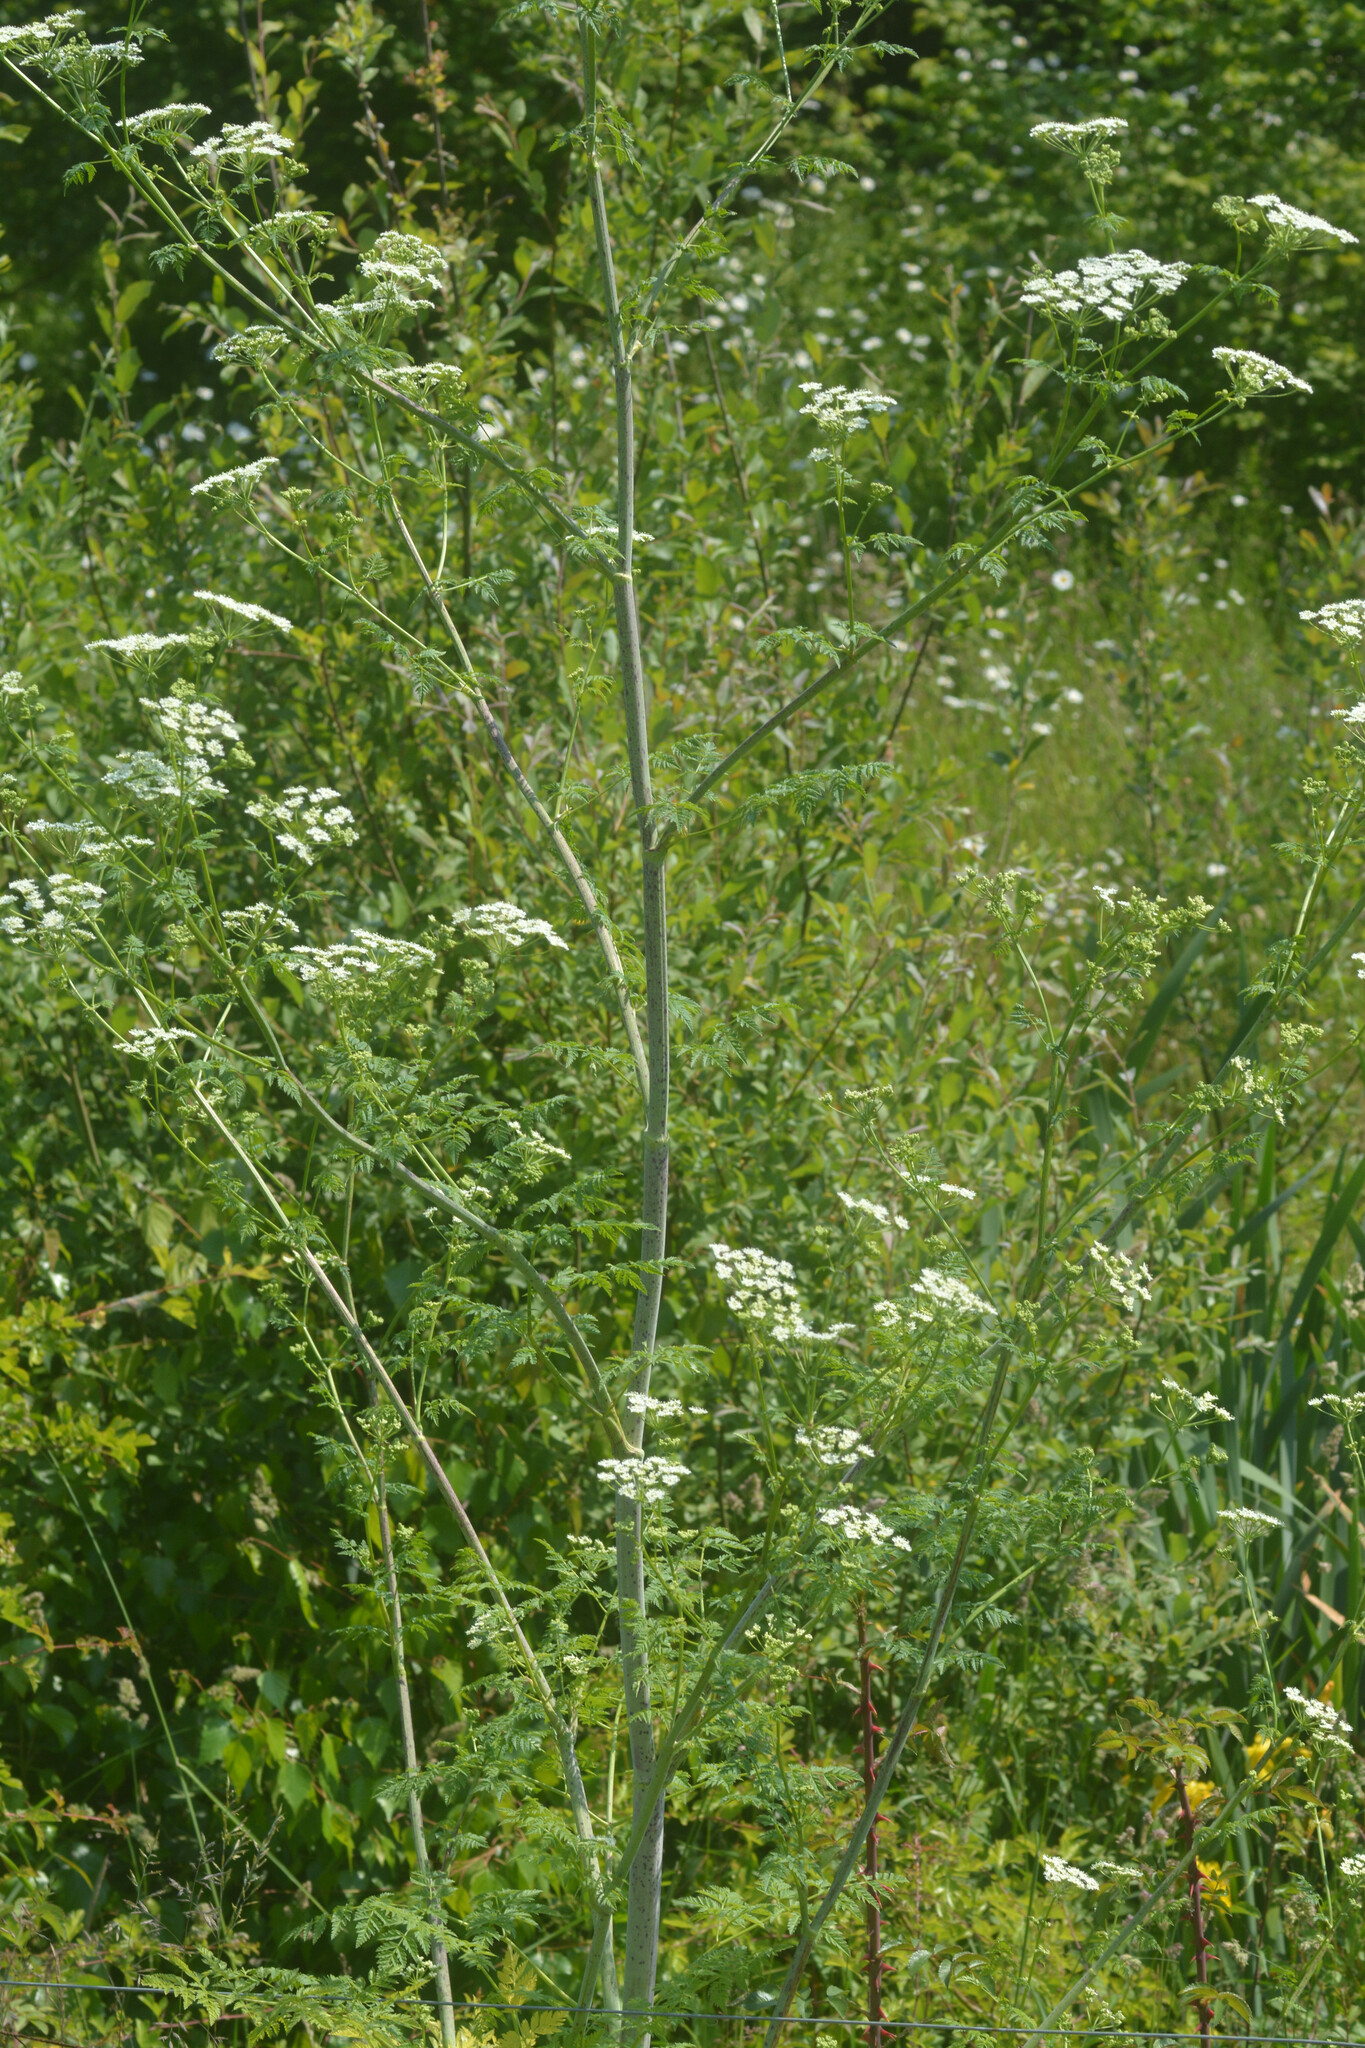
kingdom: Plantae
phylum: Tracheophyta
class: Magnoliopsida
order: Apiales
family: Apiaceae
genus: Conium
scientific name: Conium maculatum
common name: Hemlock
